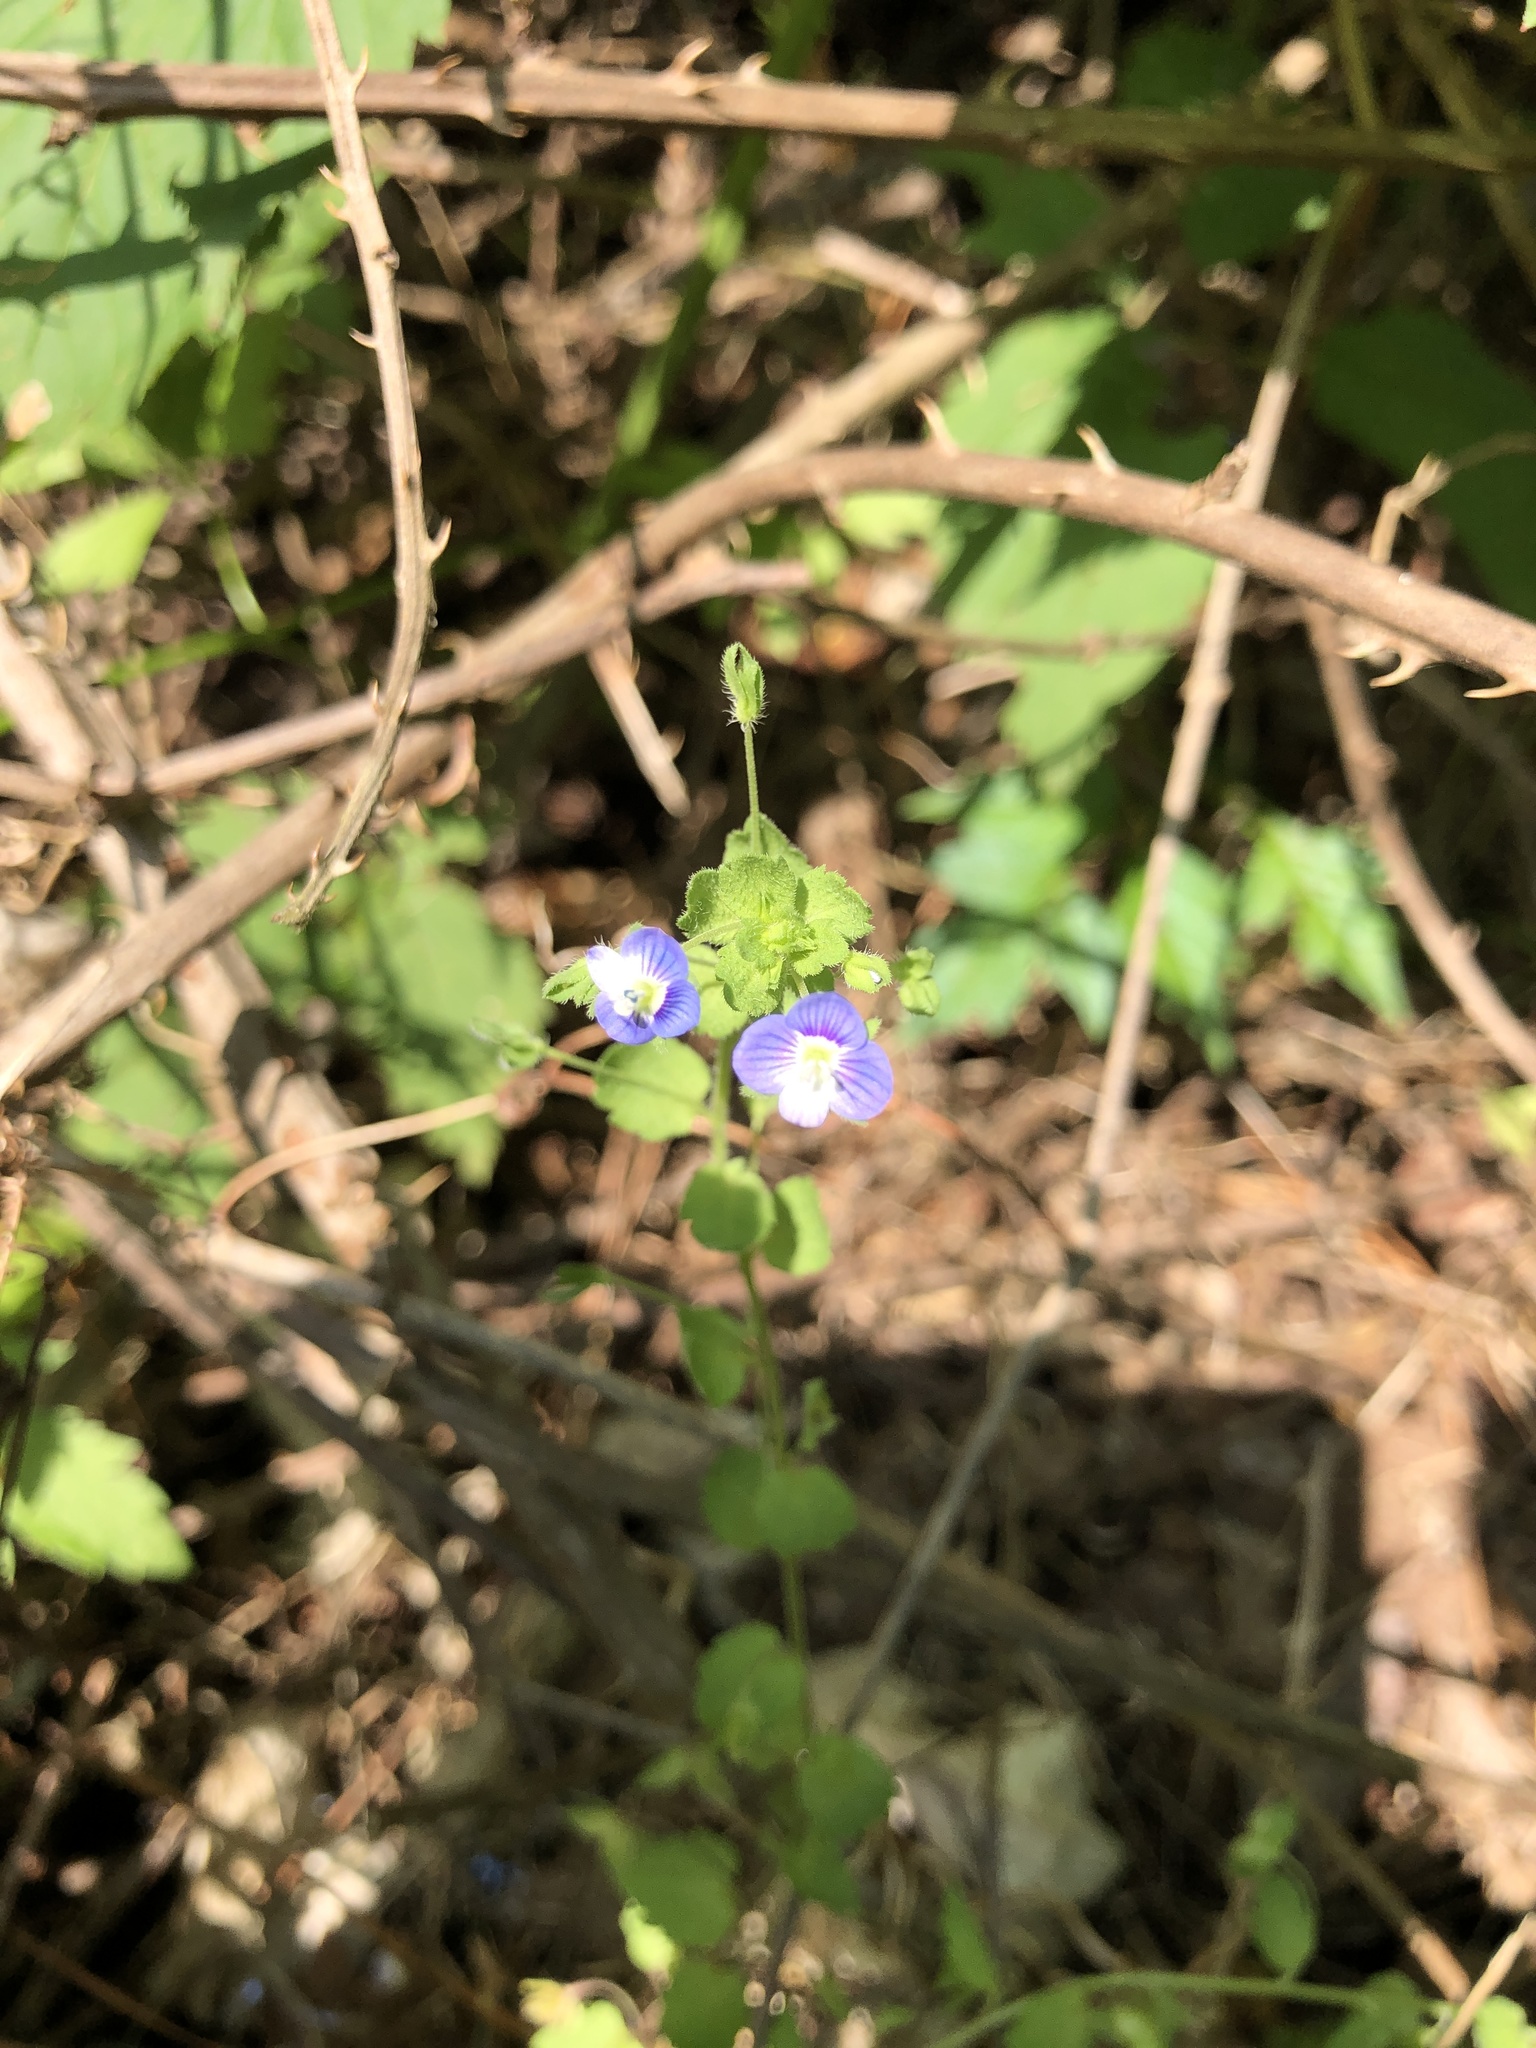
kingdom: Plantae
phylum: Tracheophyta
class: Magnoliopsida
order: Lamiales
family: Plantaginaceae
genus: Veronica
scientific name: Veronica persica
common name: Common field-speedwell
